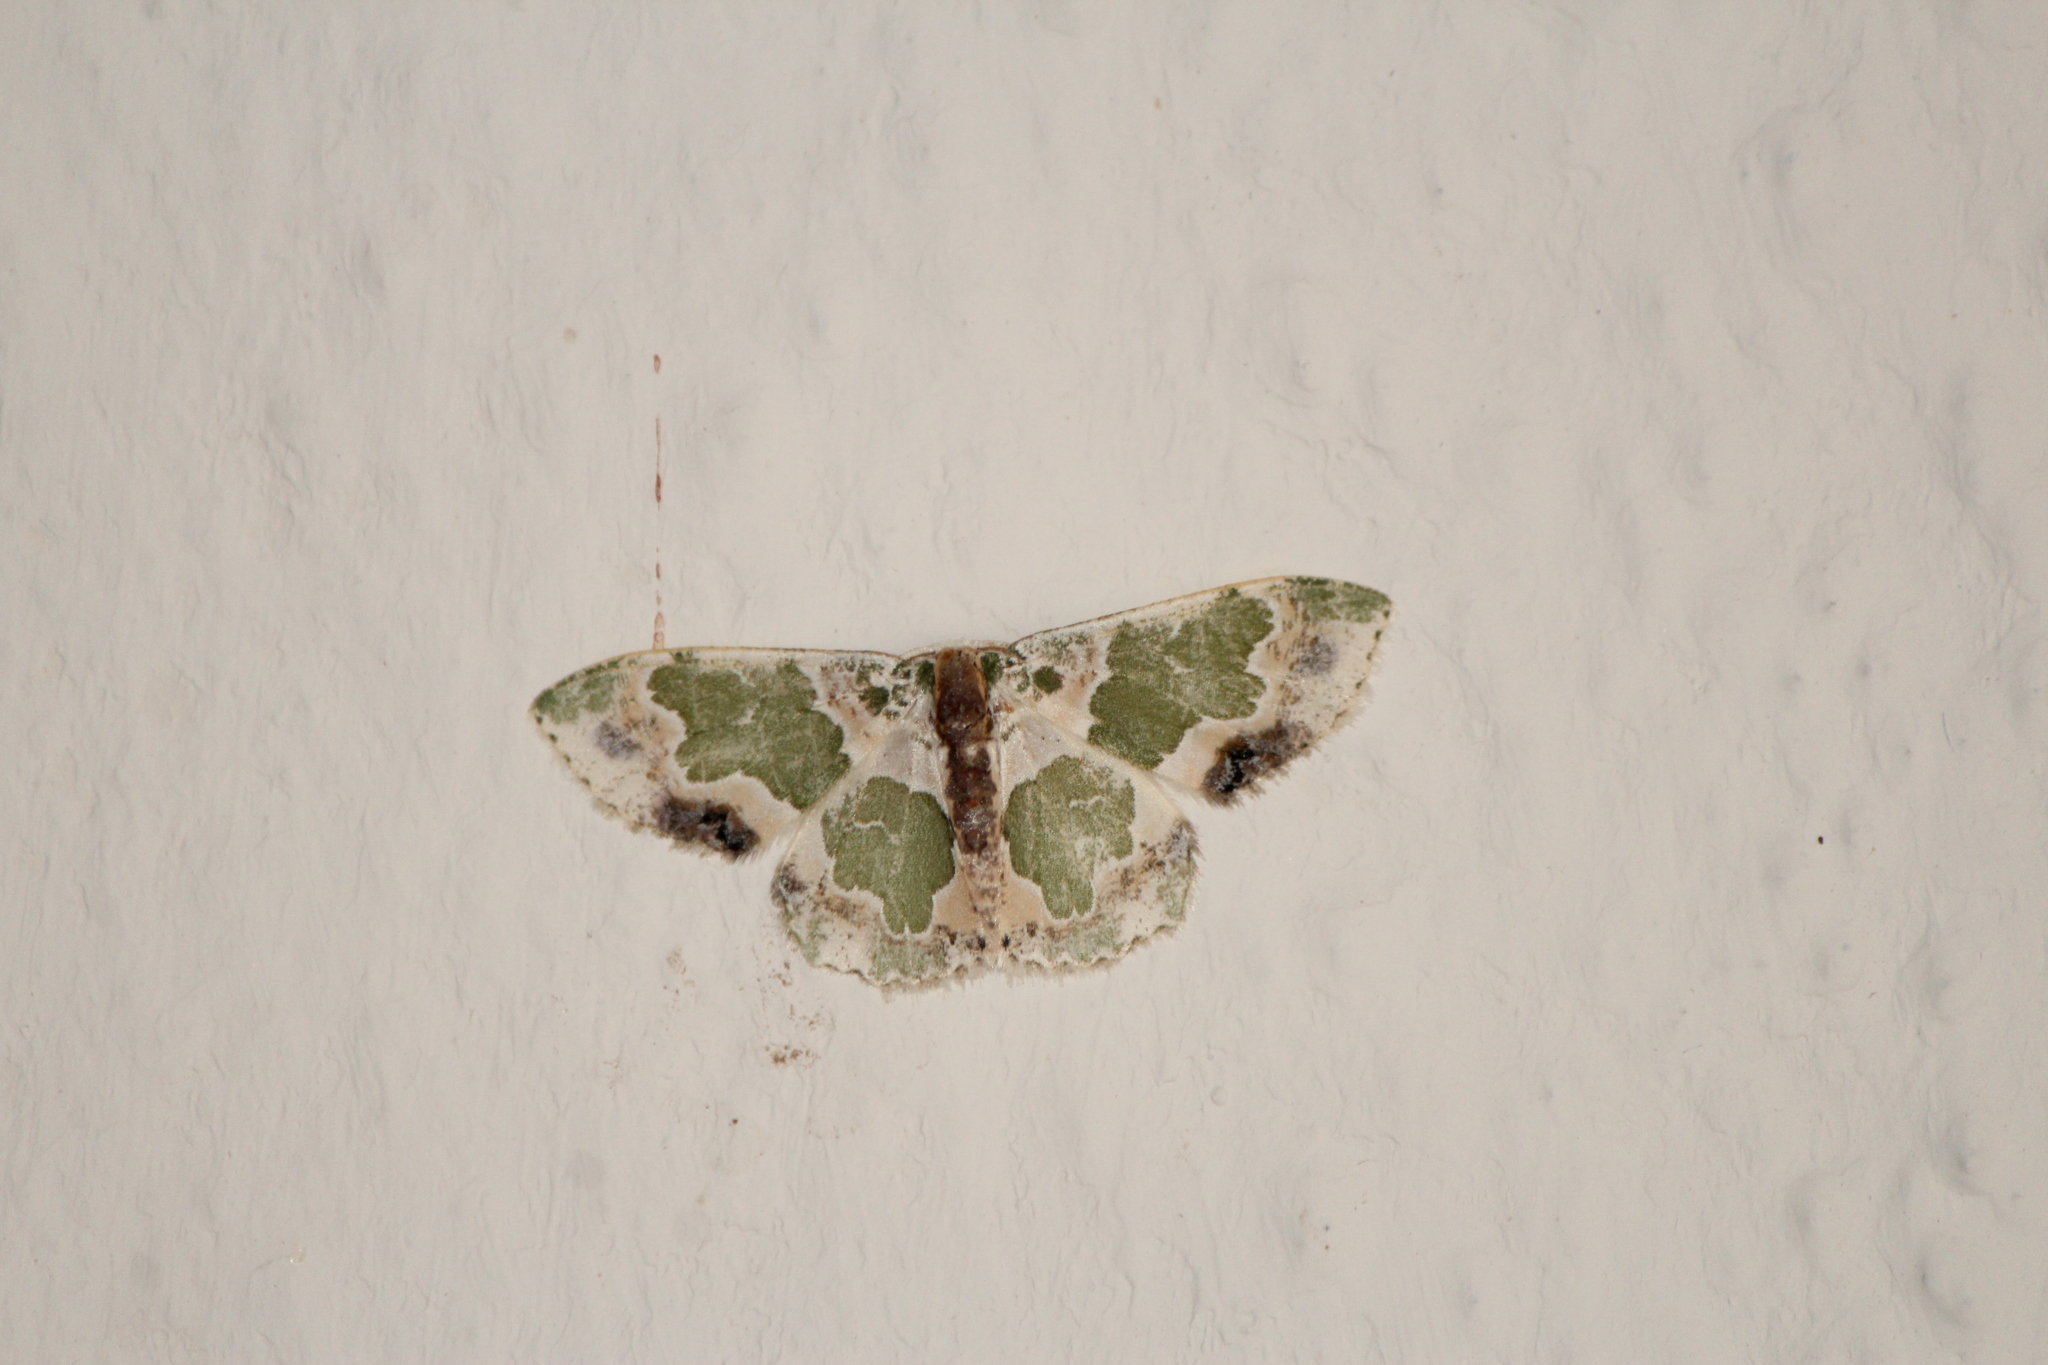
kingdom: Animalia
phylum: Arthropoda
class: Insecta
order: Lepidoptera
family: Geometridae
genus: Lophochorista
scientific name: Lophochorista calliope
